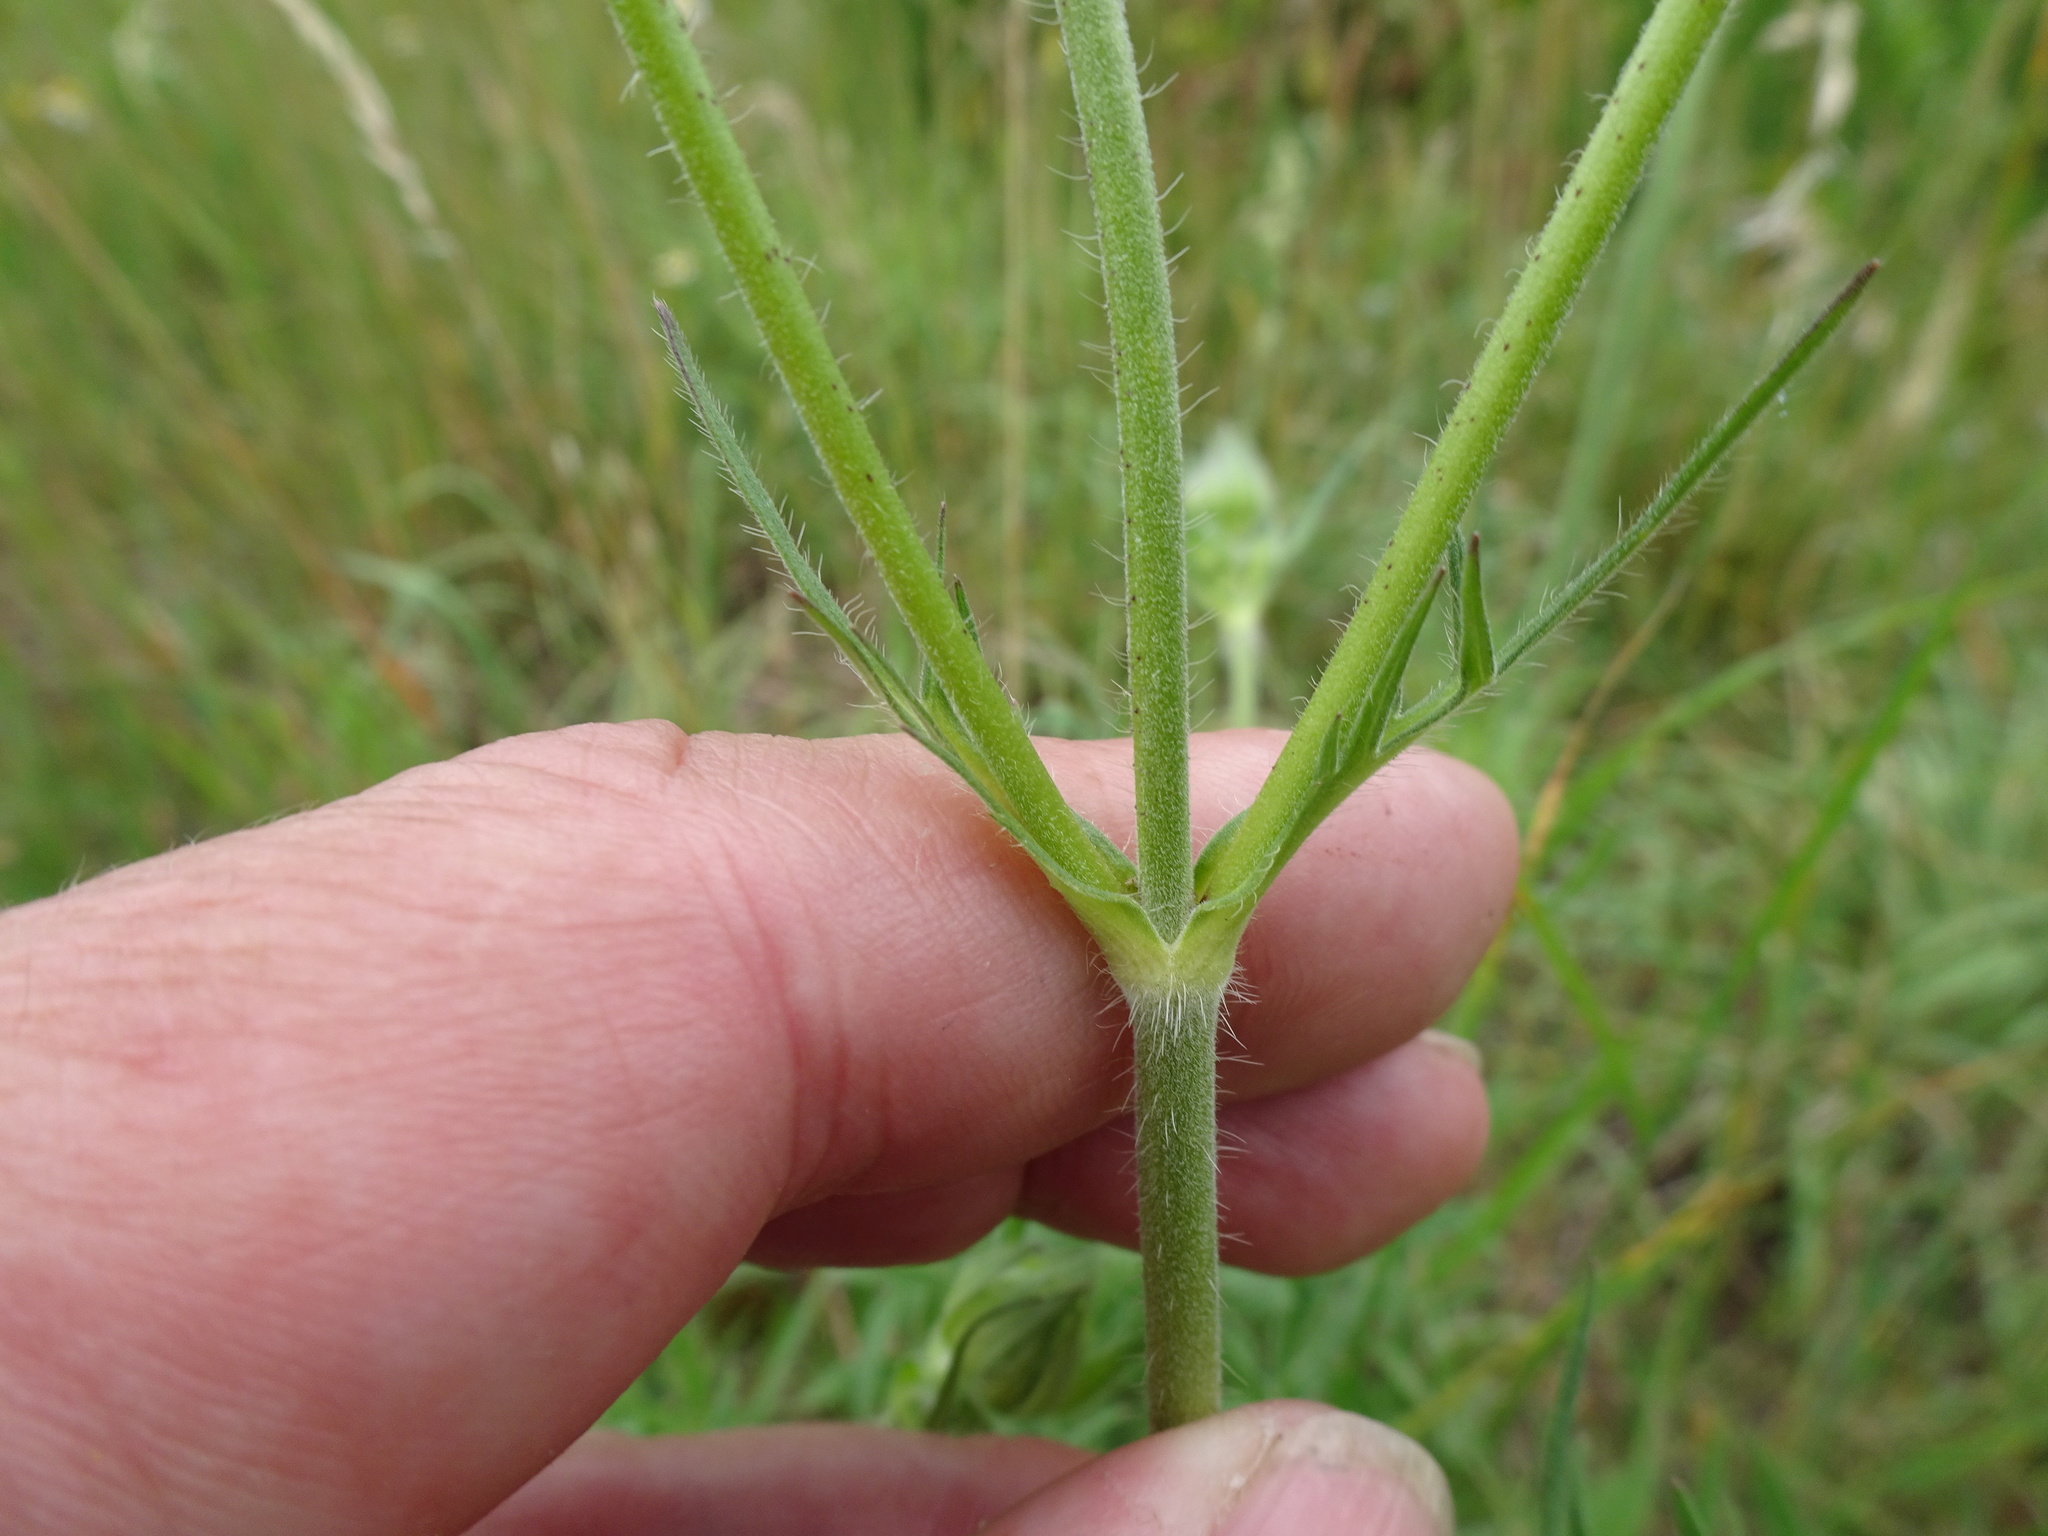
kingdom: Plantae
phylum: Tracheophyta
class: Magnoliopsida
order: Dipsacales
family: Caprifoliaceae
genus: Knautia
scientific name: Knautia arvensis
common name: Field scabiosa
